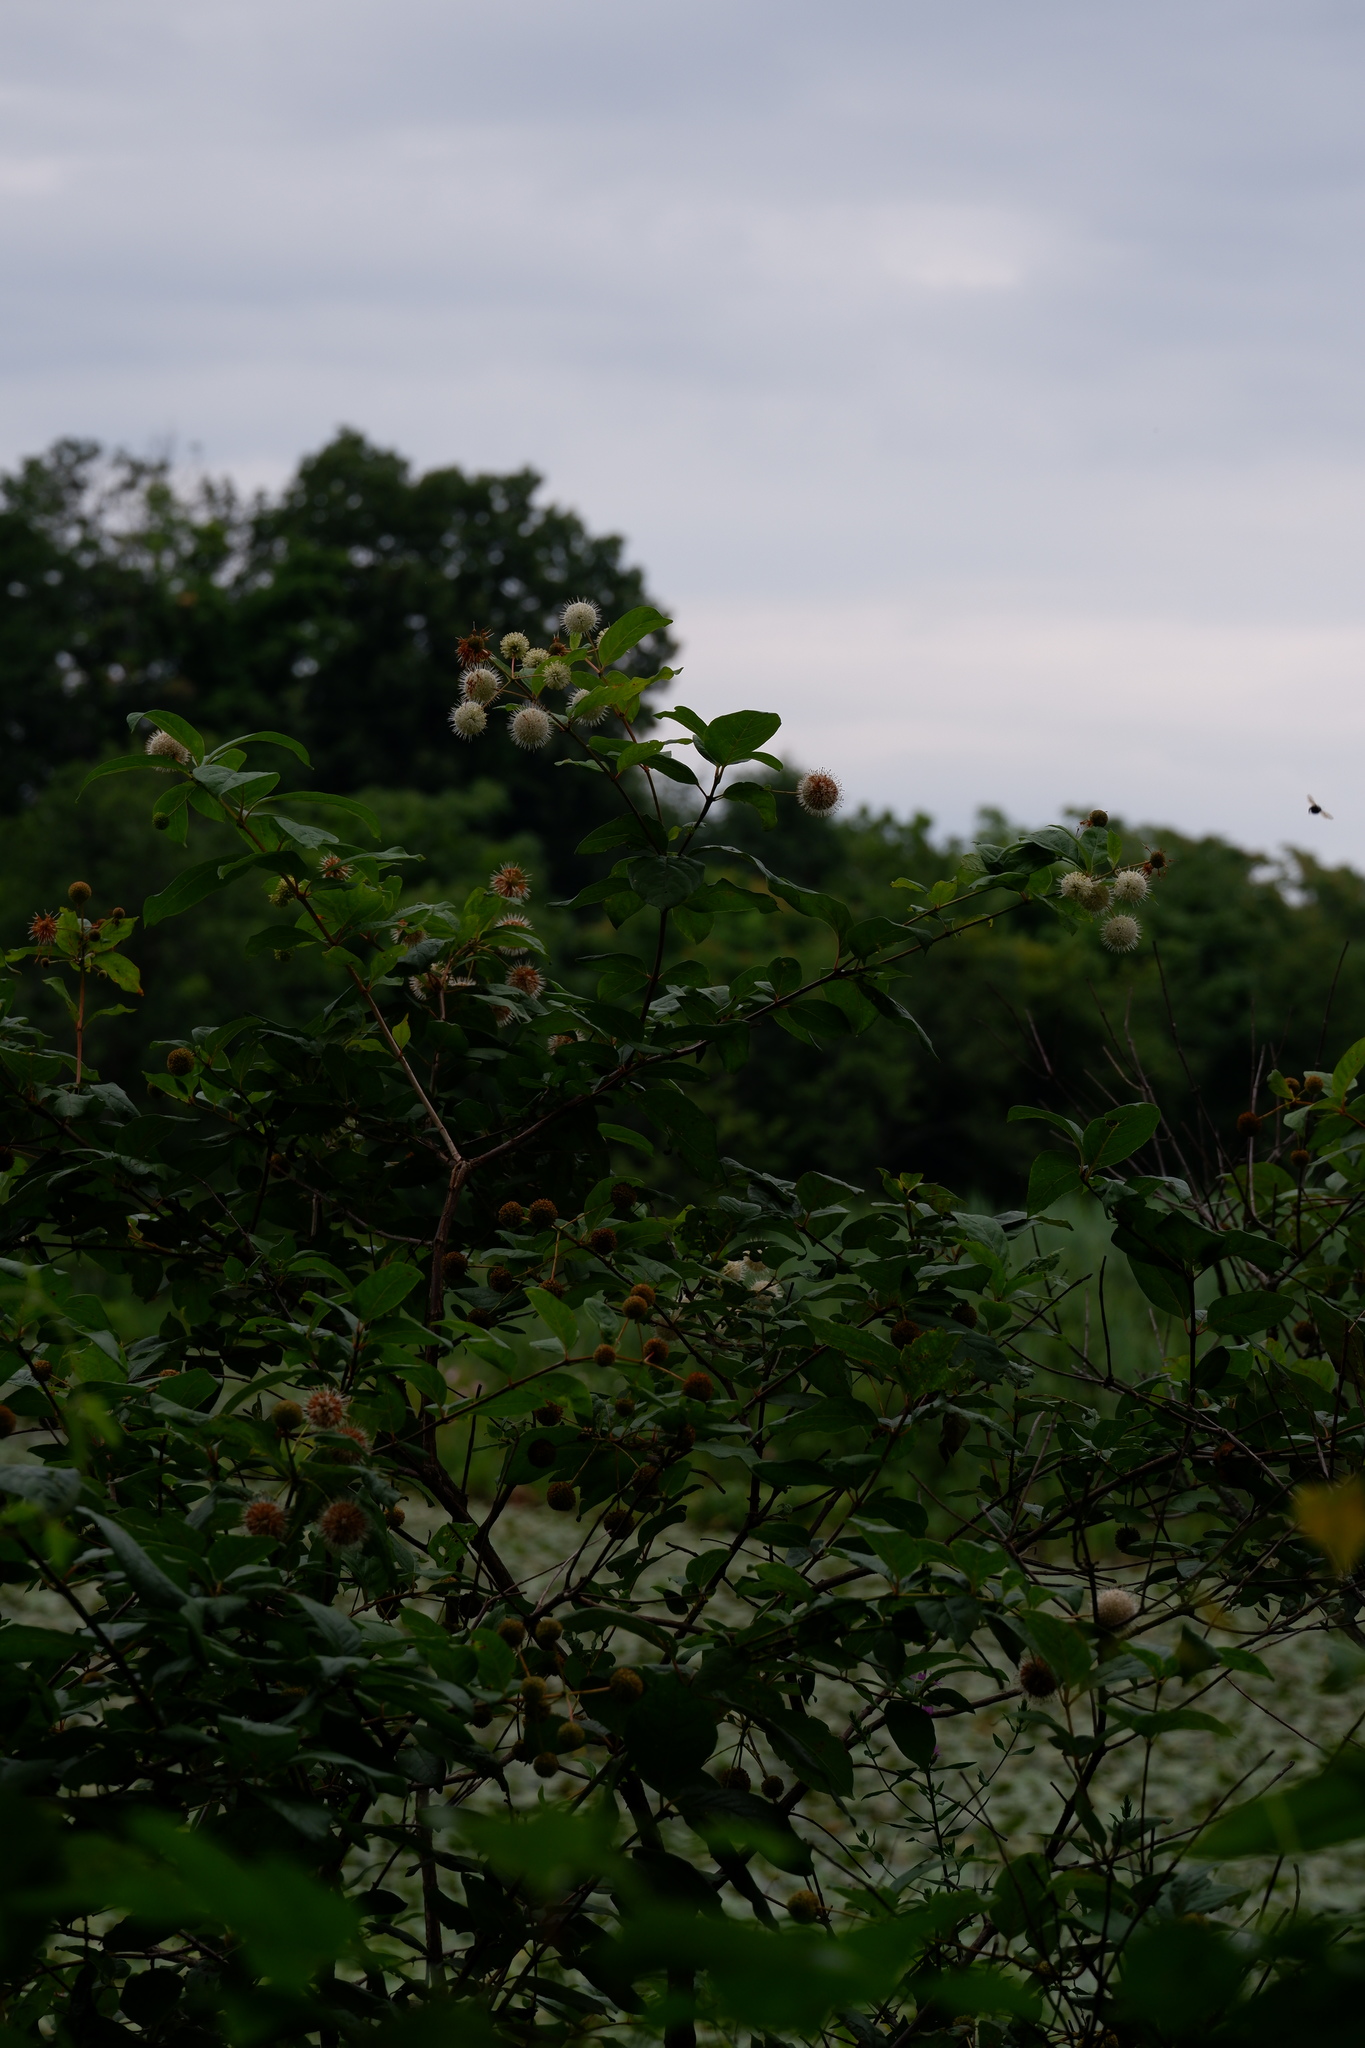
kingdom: Plantae
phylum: Tracheophyta
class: Magnoliopsida
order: Gentianales
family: Rubiaceae
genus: Cephalanthus
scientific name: Cephalanthus occidentalis
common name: Button-willow
